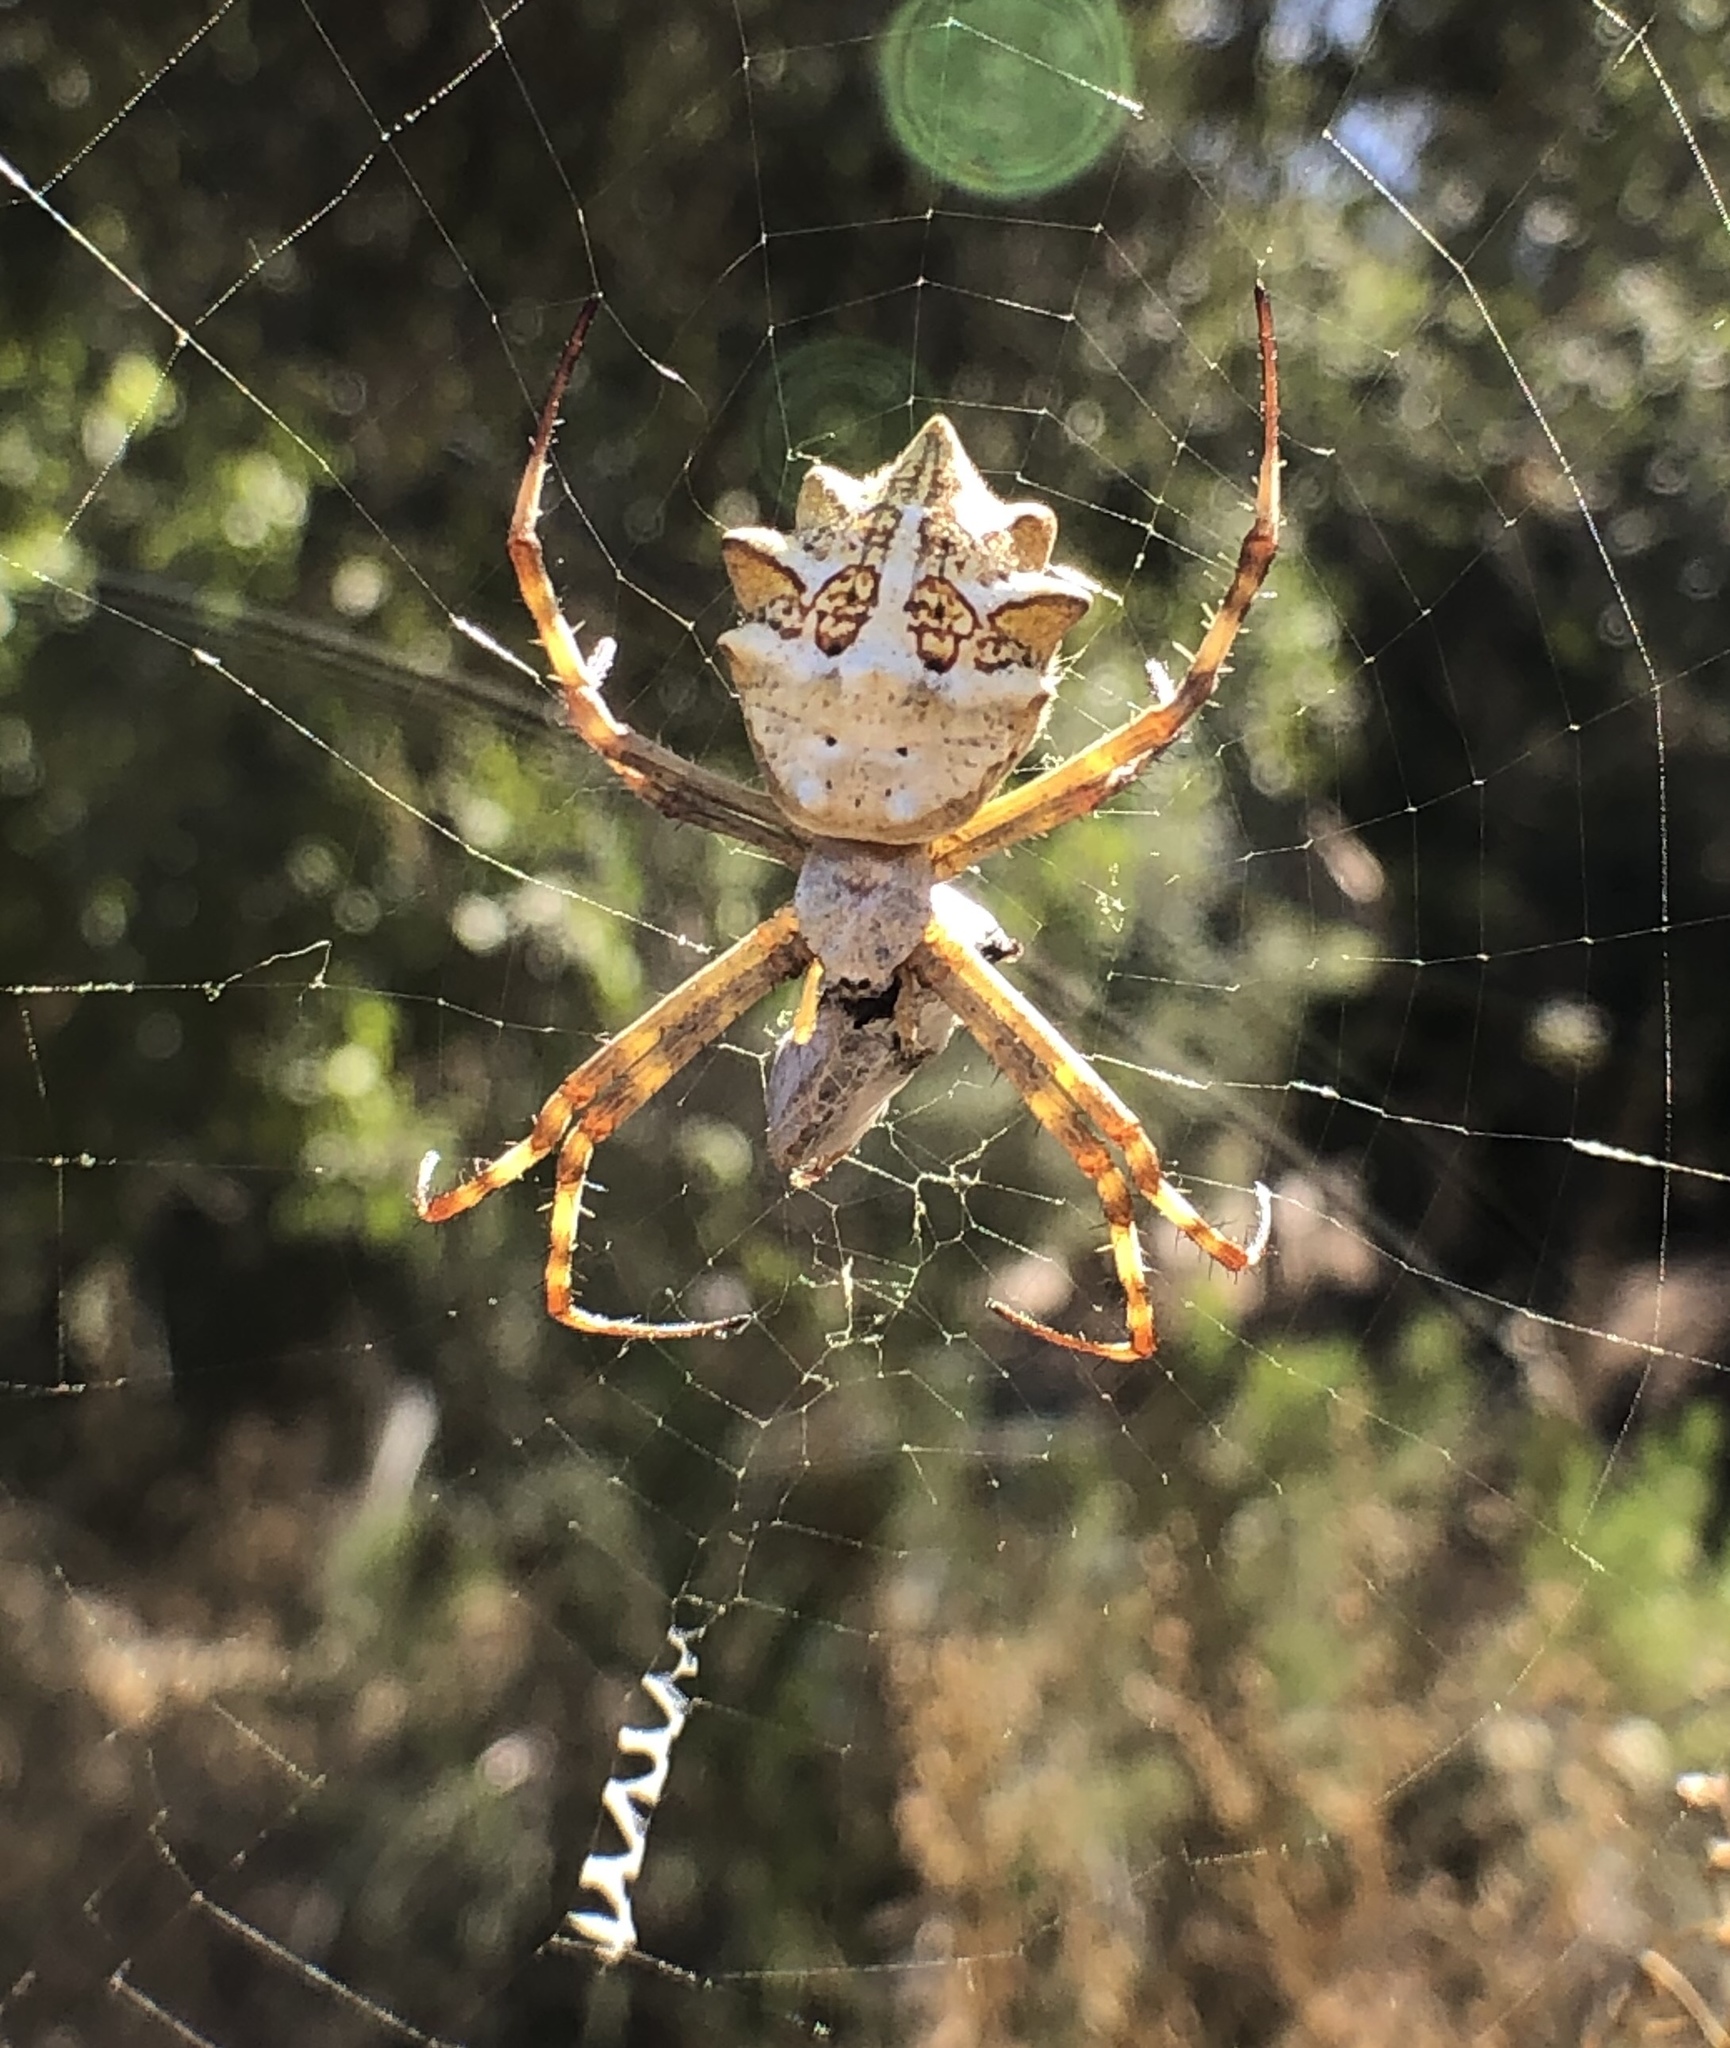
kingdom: Animalia
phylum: Arthropoda
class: Arachnida
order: Araneae
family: Araneidae
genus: Argiope
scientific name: Argiope argentata
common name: Orb weavers
